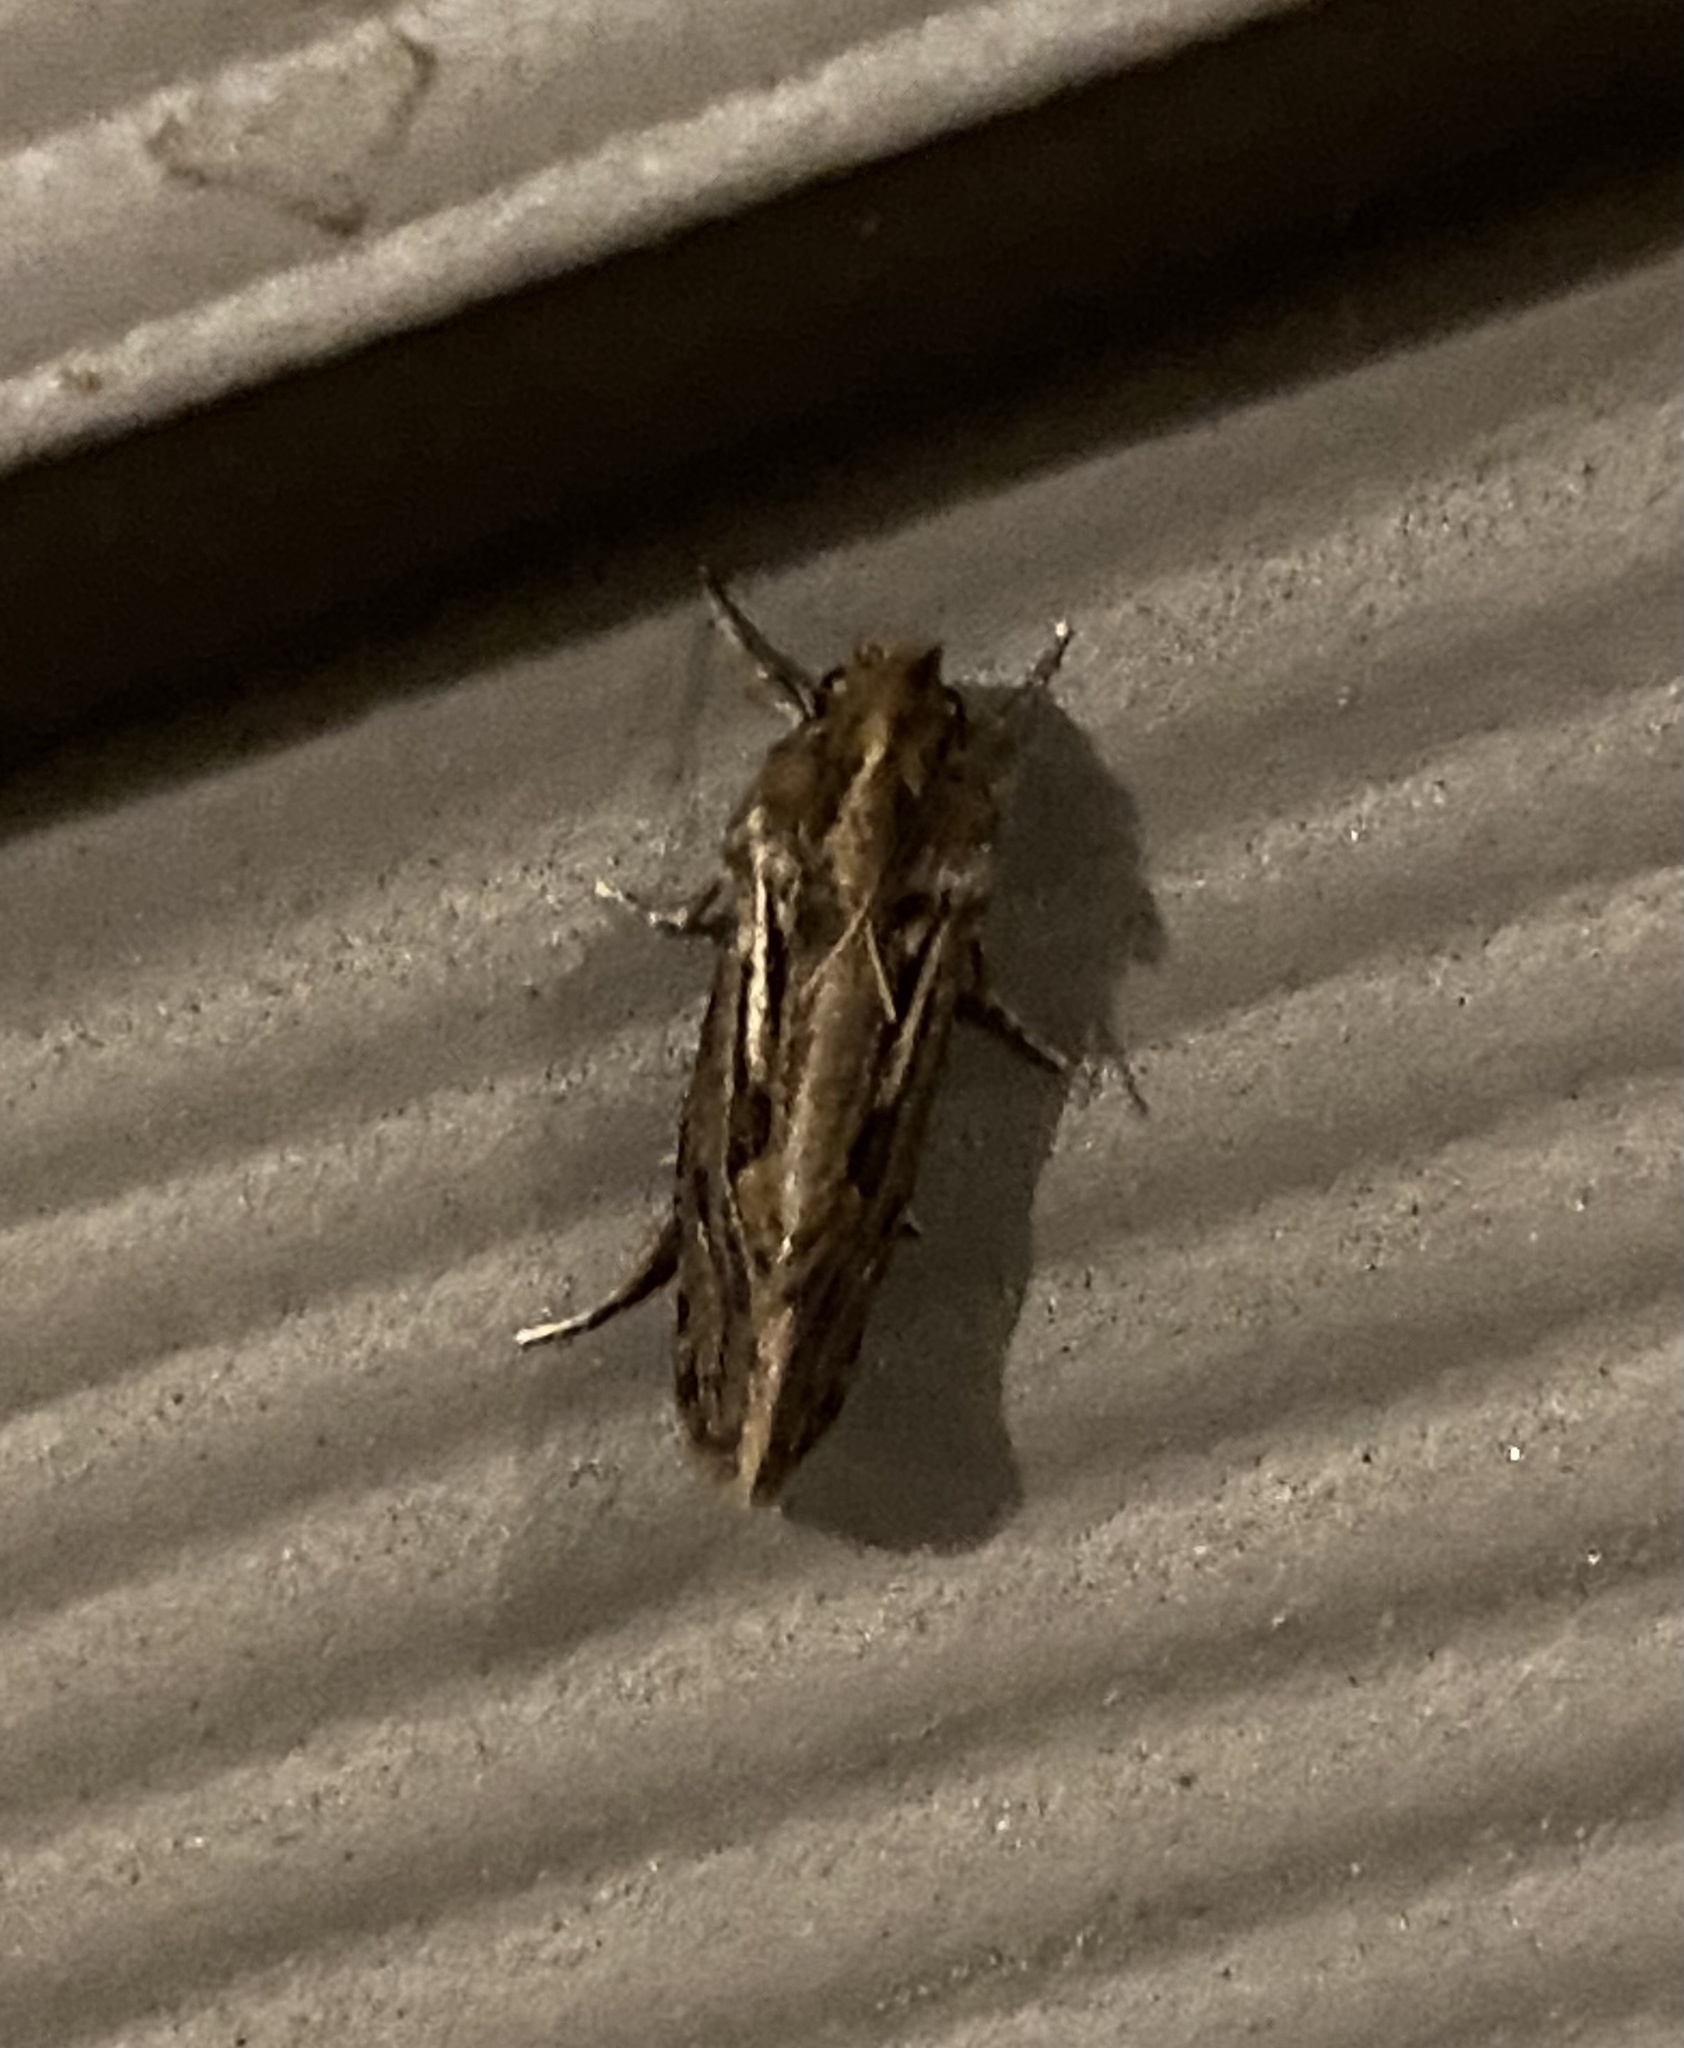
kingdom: Animalia
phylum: Arthropoda
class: Insecta
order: Lepidoptera
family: Tineidae
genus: Acrolophus
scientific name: Acrolophus popeanella
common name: Clemens' grass tubeworm moth
